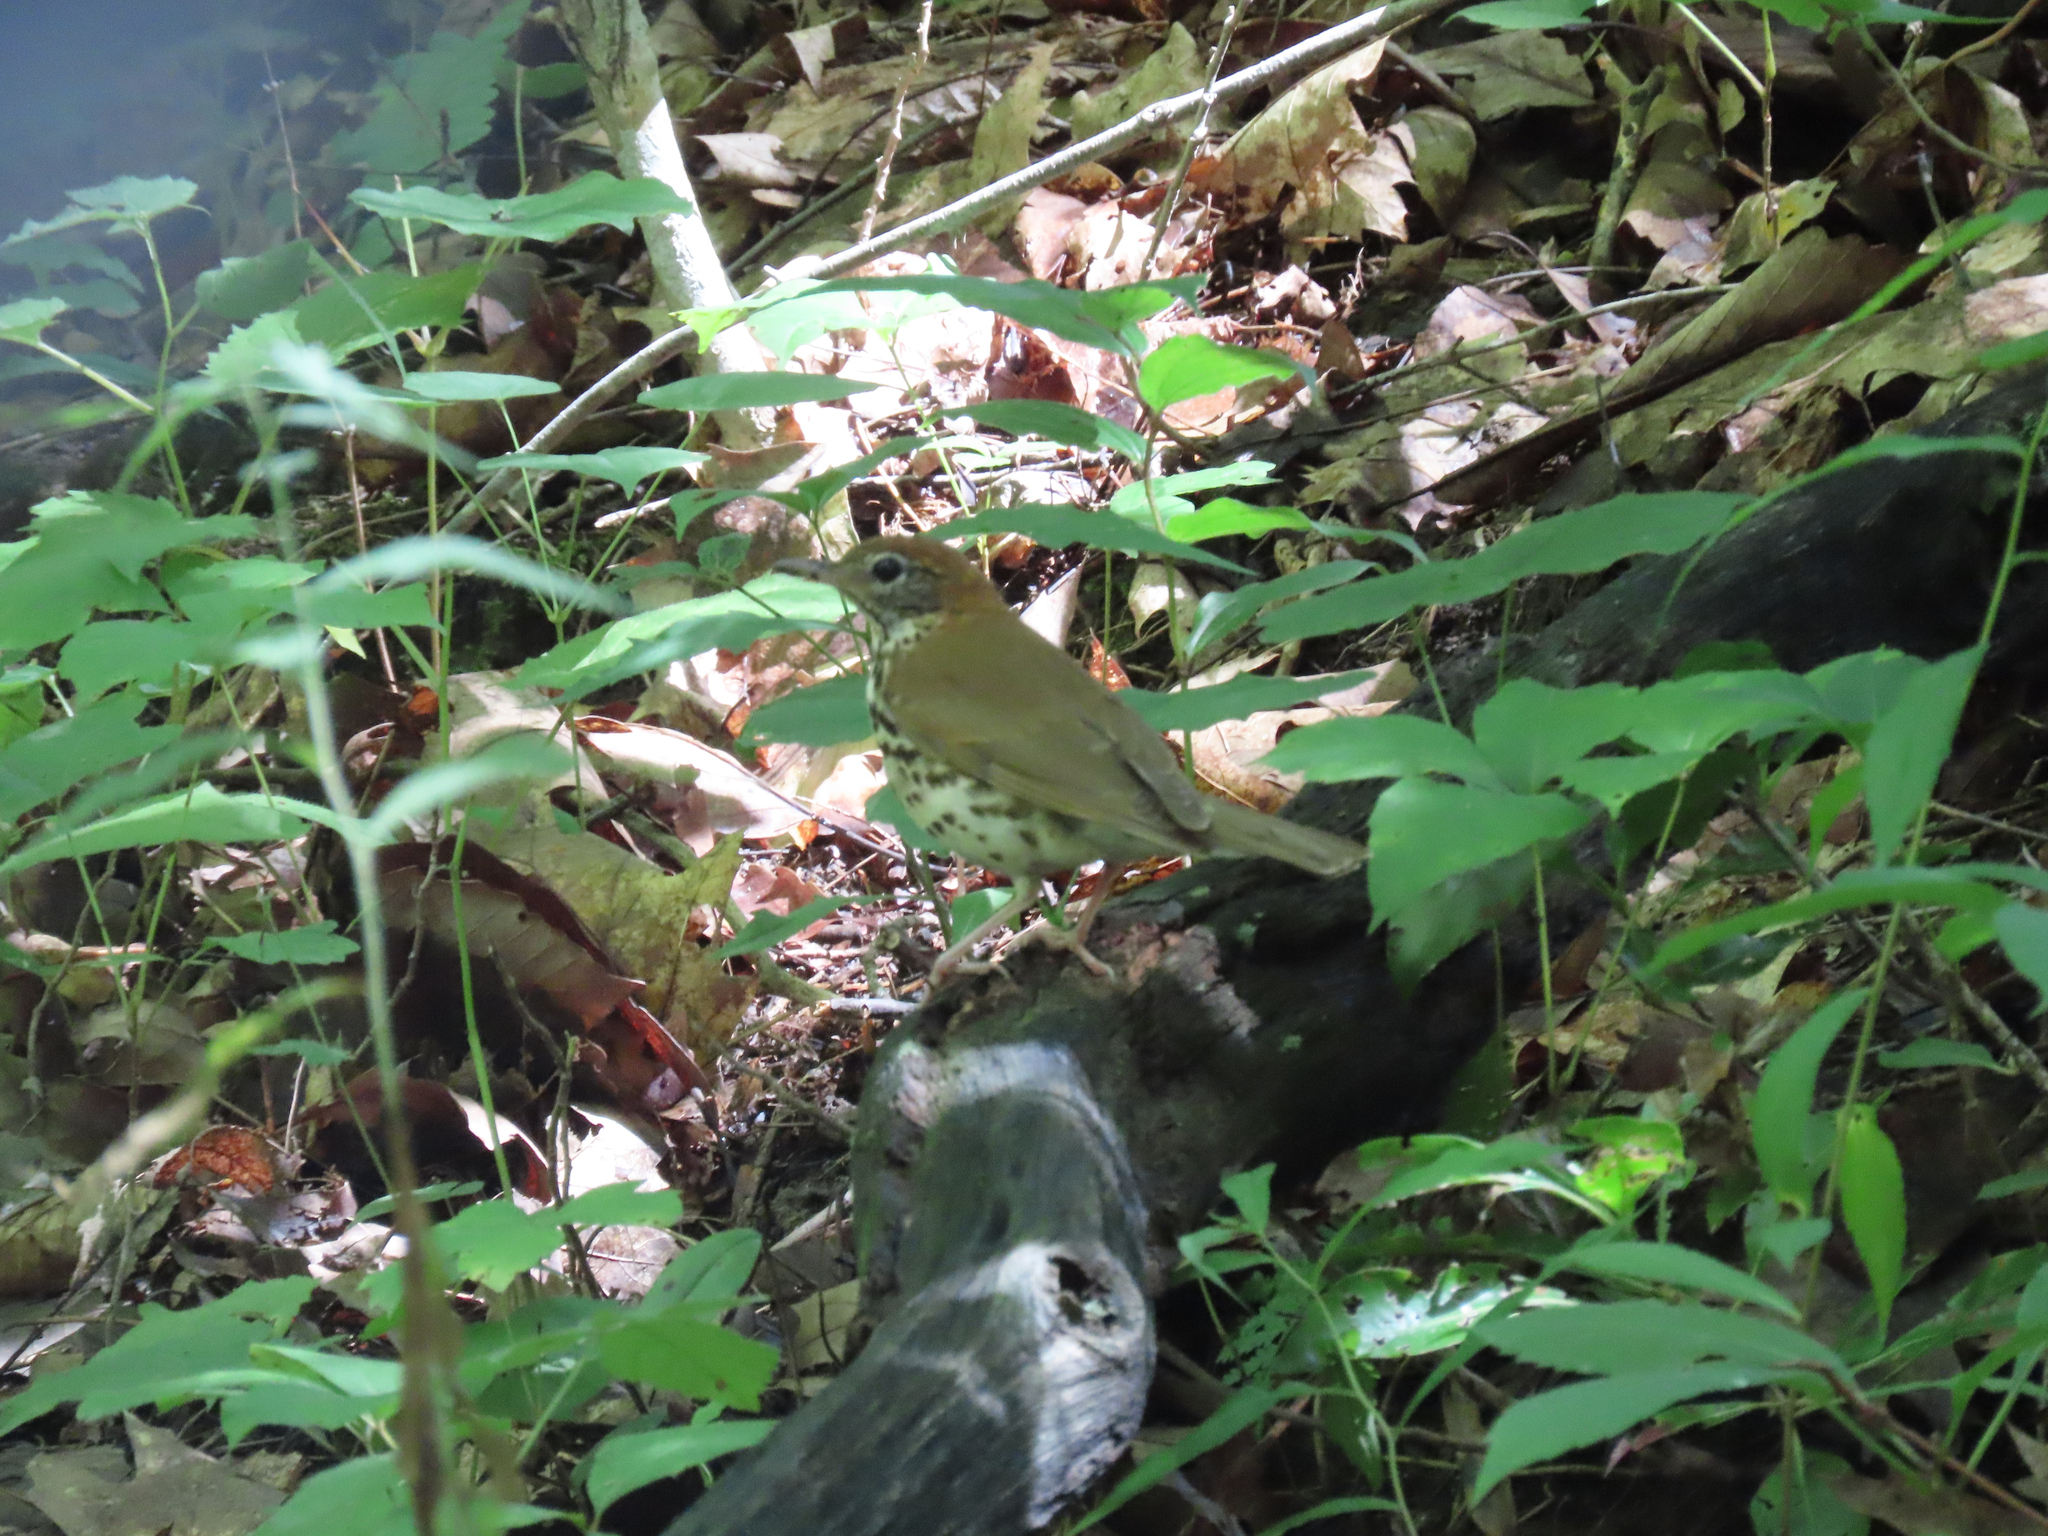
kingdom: Animalia
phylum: Chordata
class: Aves
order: Passeriformes
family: Turdidae
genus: Hylocichla
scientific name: Hylocichla mustelina
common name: Wood thrush
